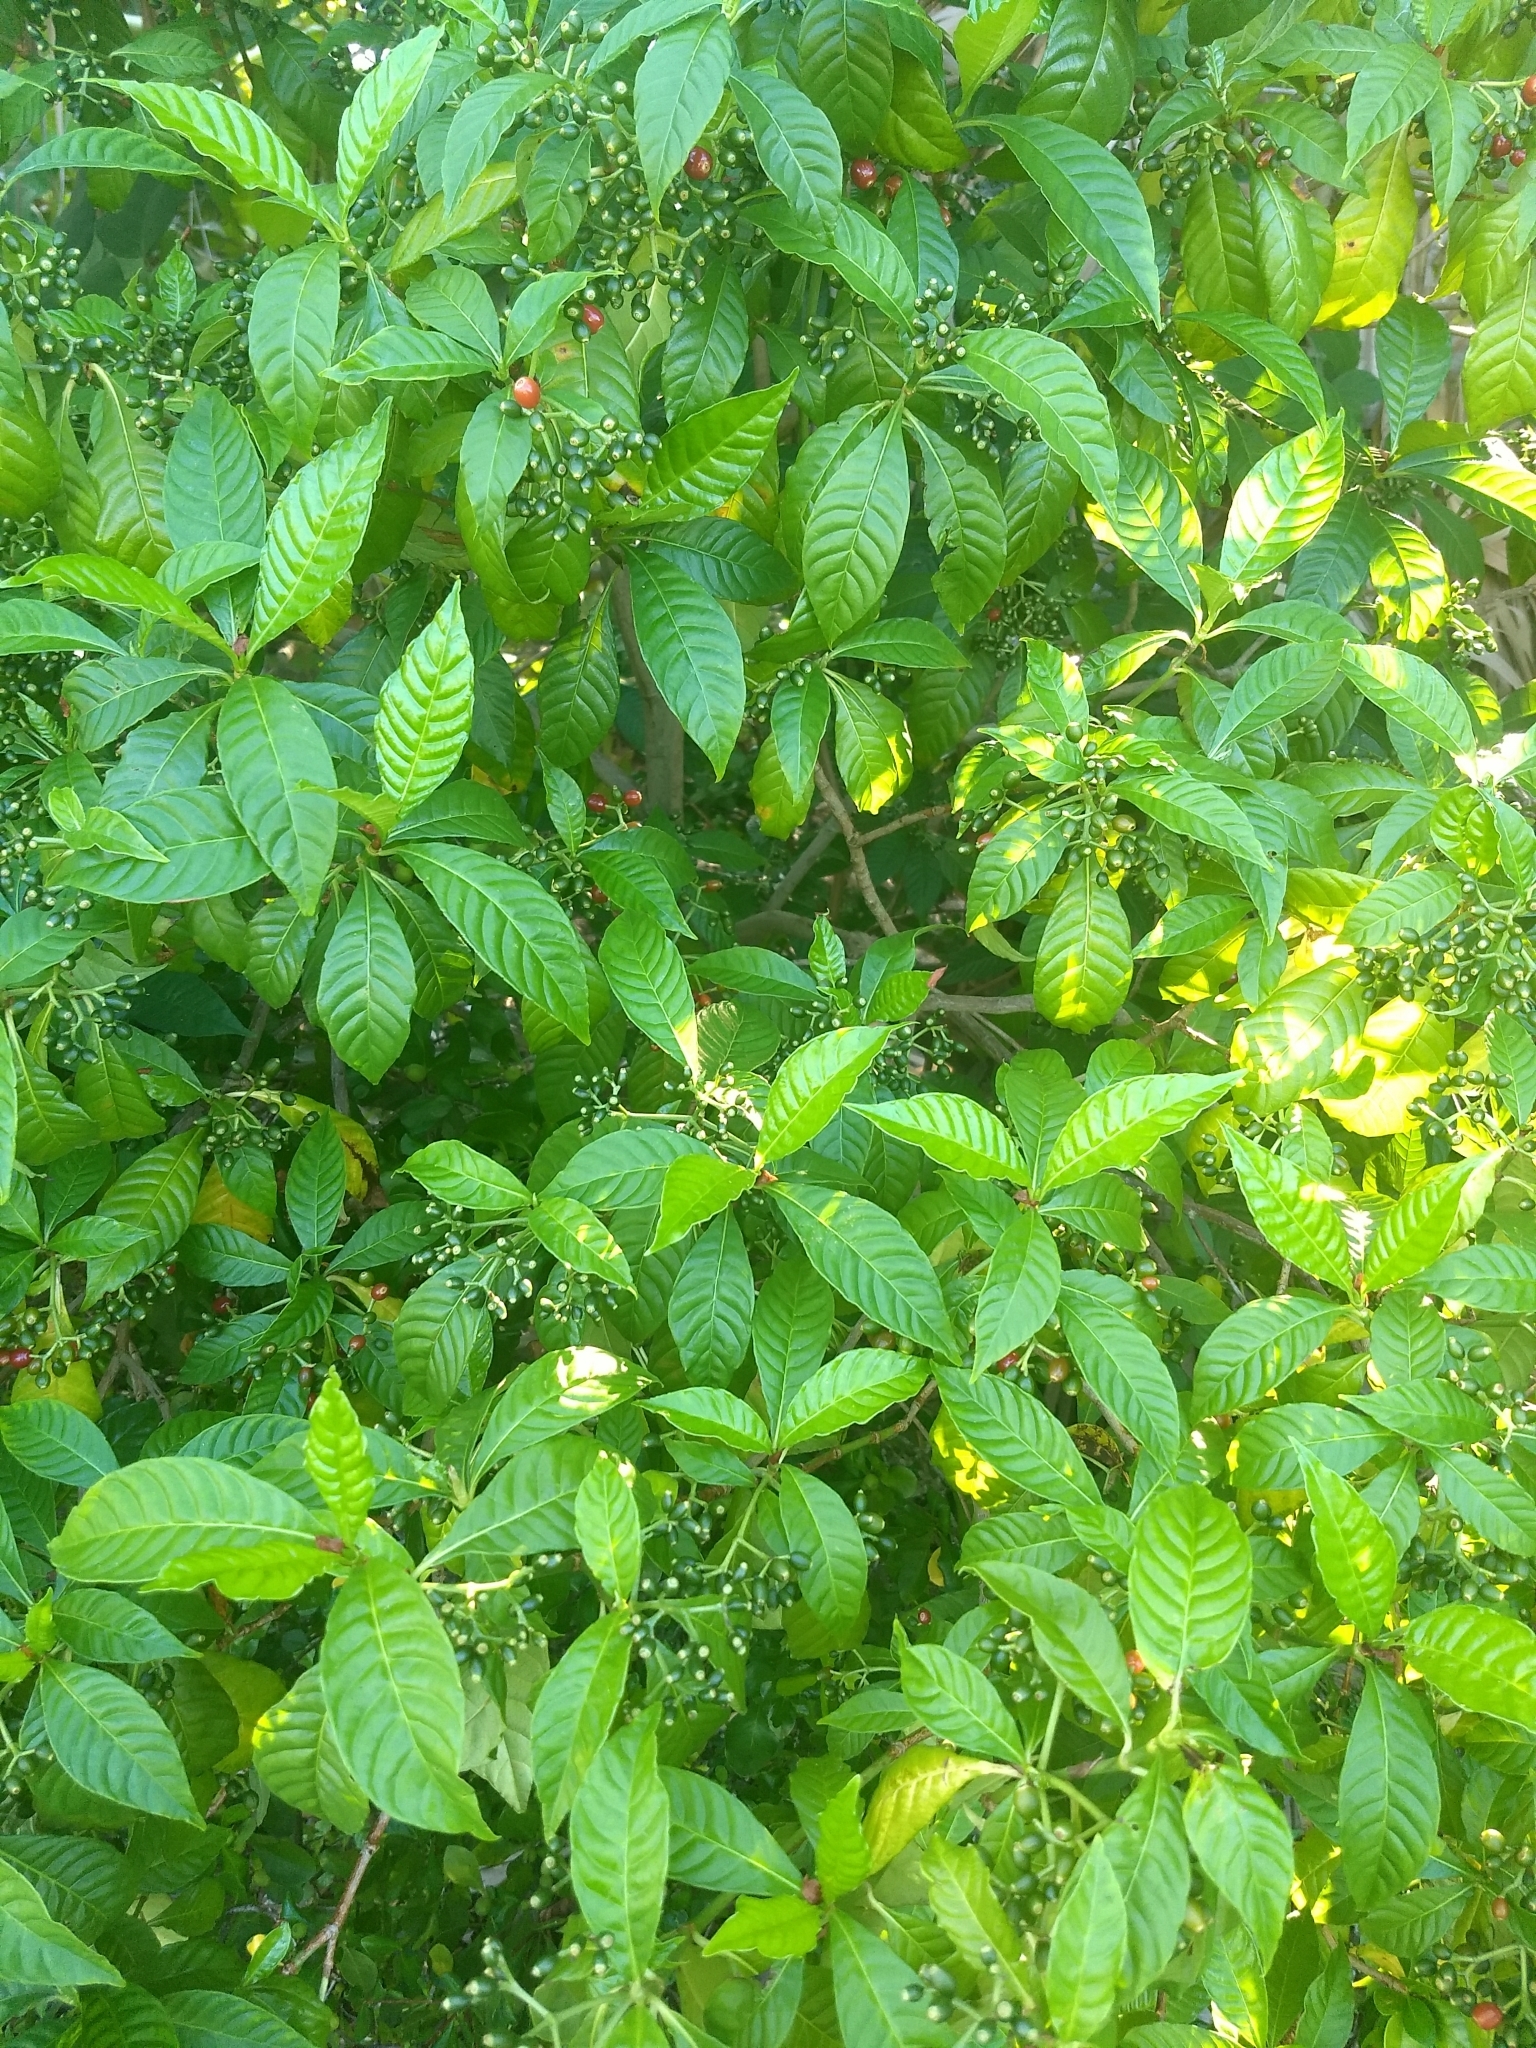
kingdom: Plantae
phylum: Tracheophyta
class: Magnoliopsida
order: Gentianales
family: Rubiaceae
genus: Psychotria
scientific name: Psychotria nervosa
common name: Bastard cankerberry
